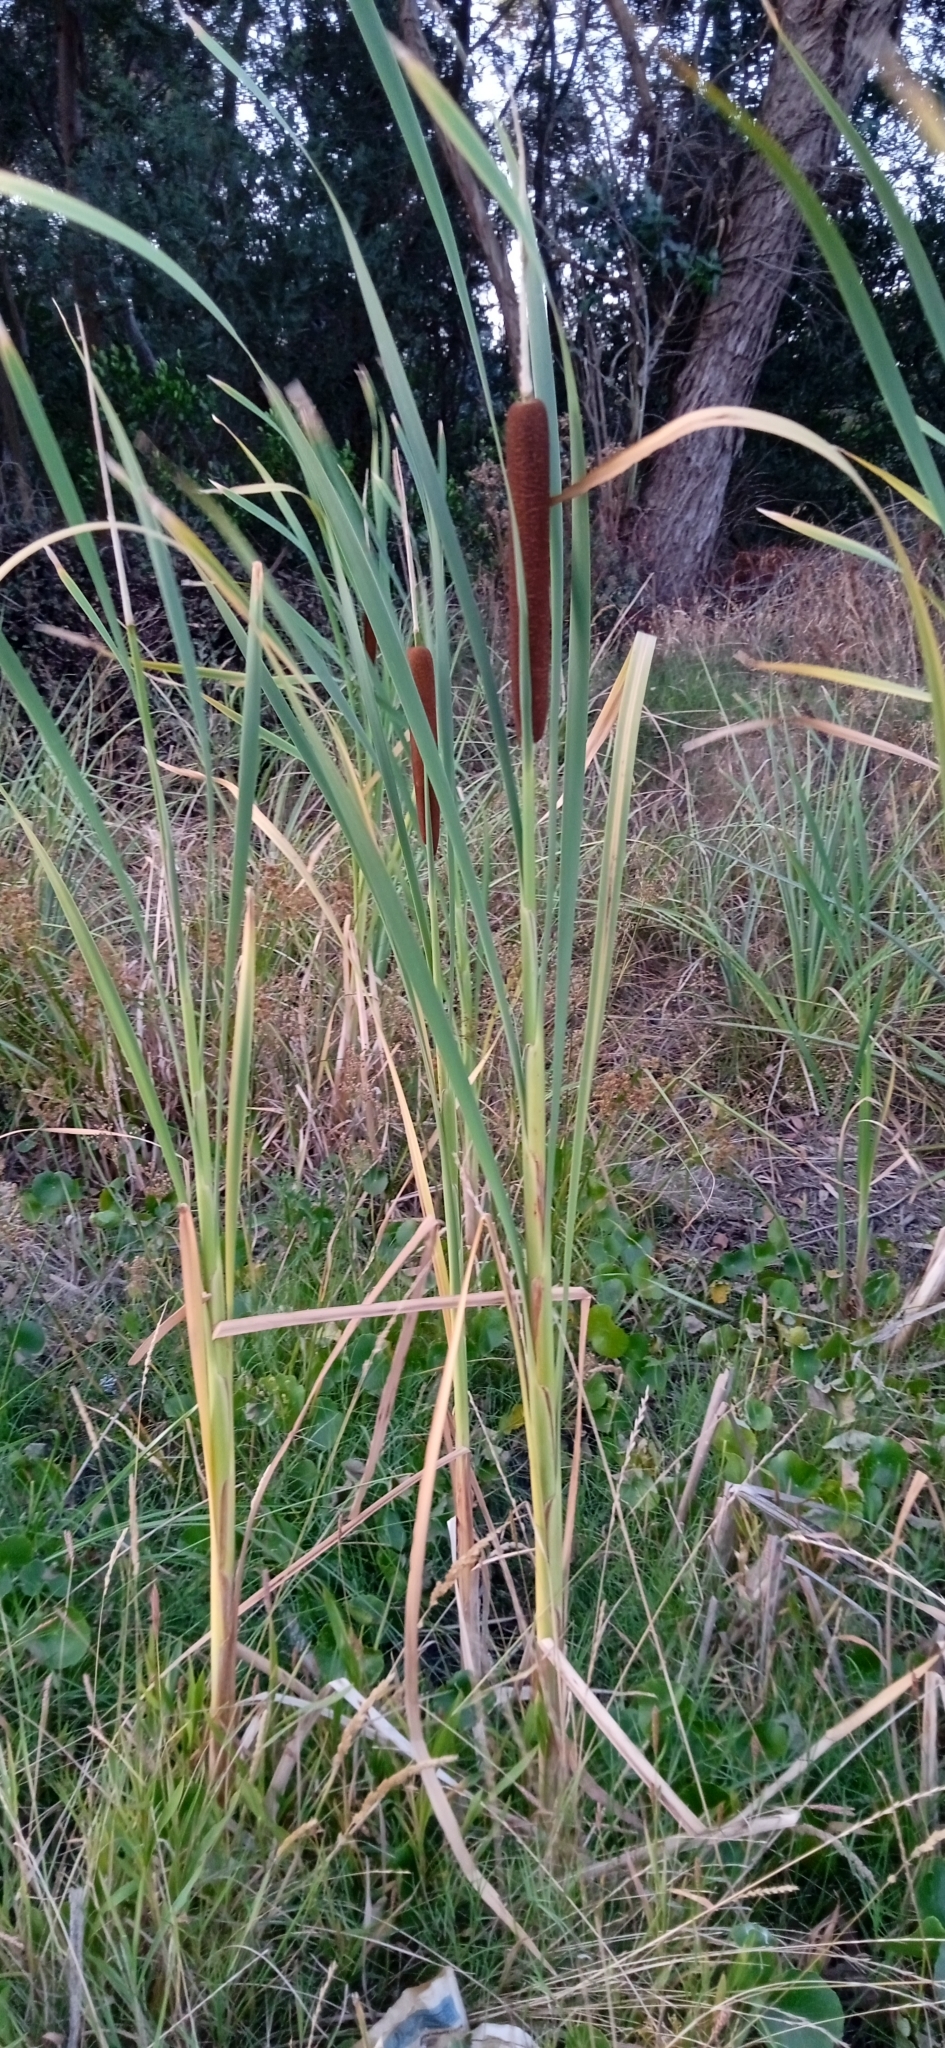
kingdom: Plantae
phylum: Tracheophyta
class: Liliopsida
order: Poales
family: Typhaceae
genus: Typha
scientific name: Typha latifolia
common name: Broadleaf cattail
